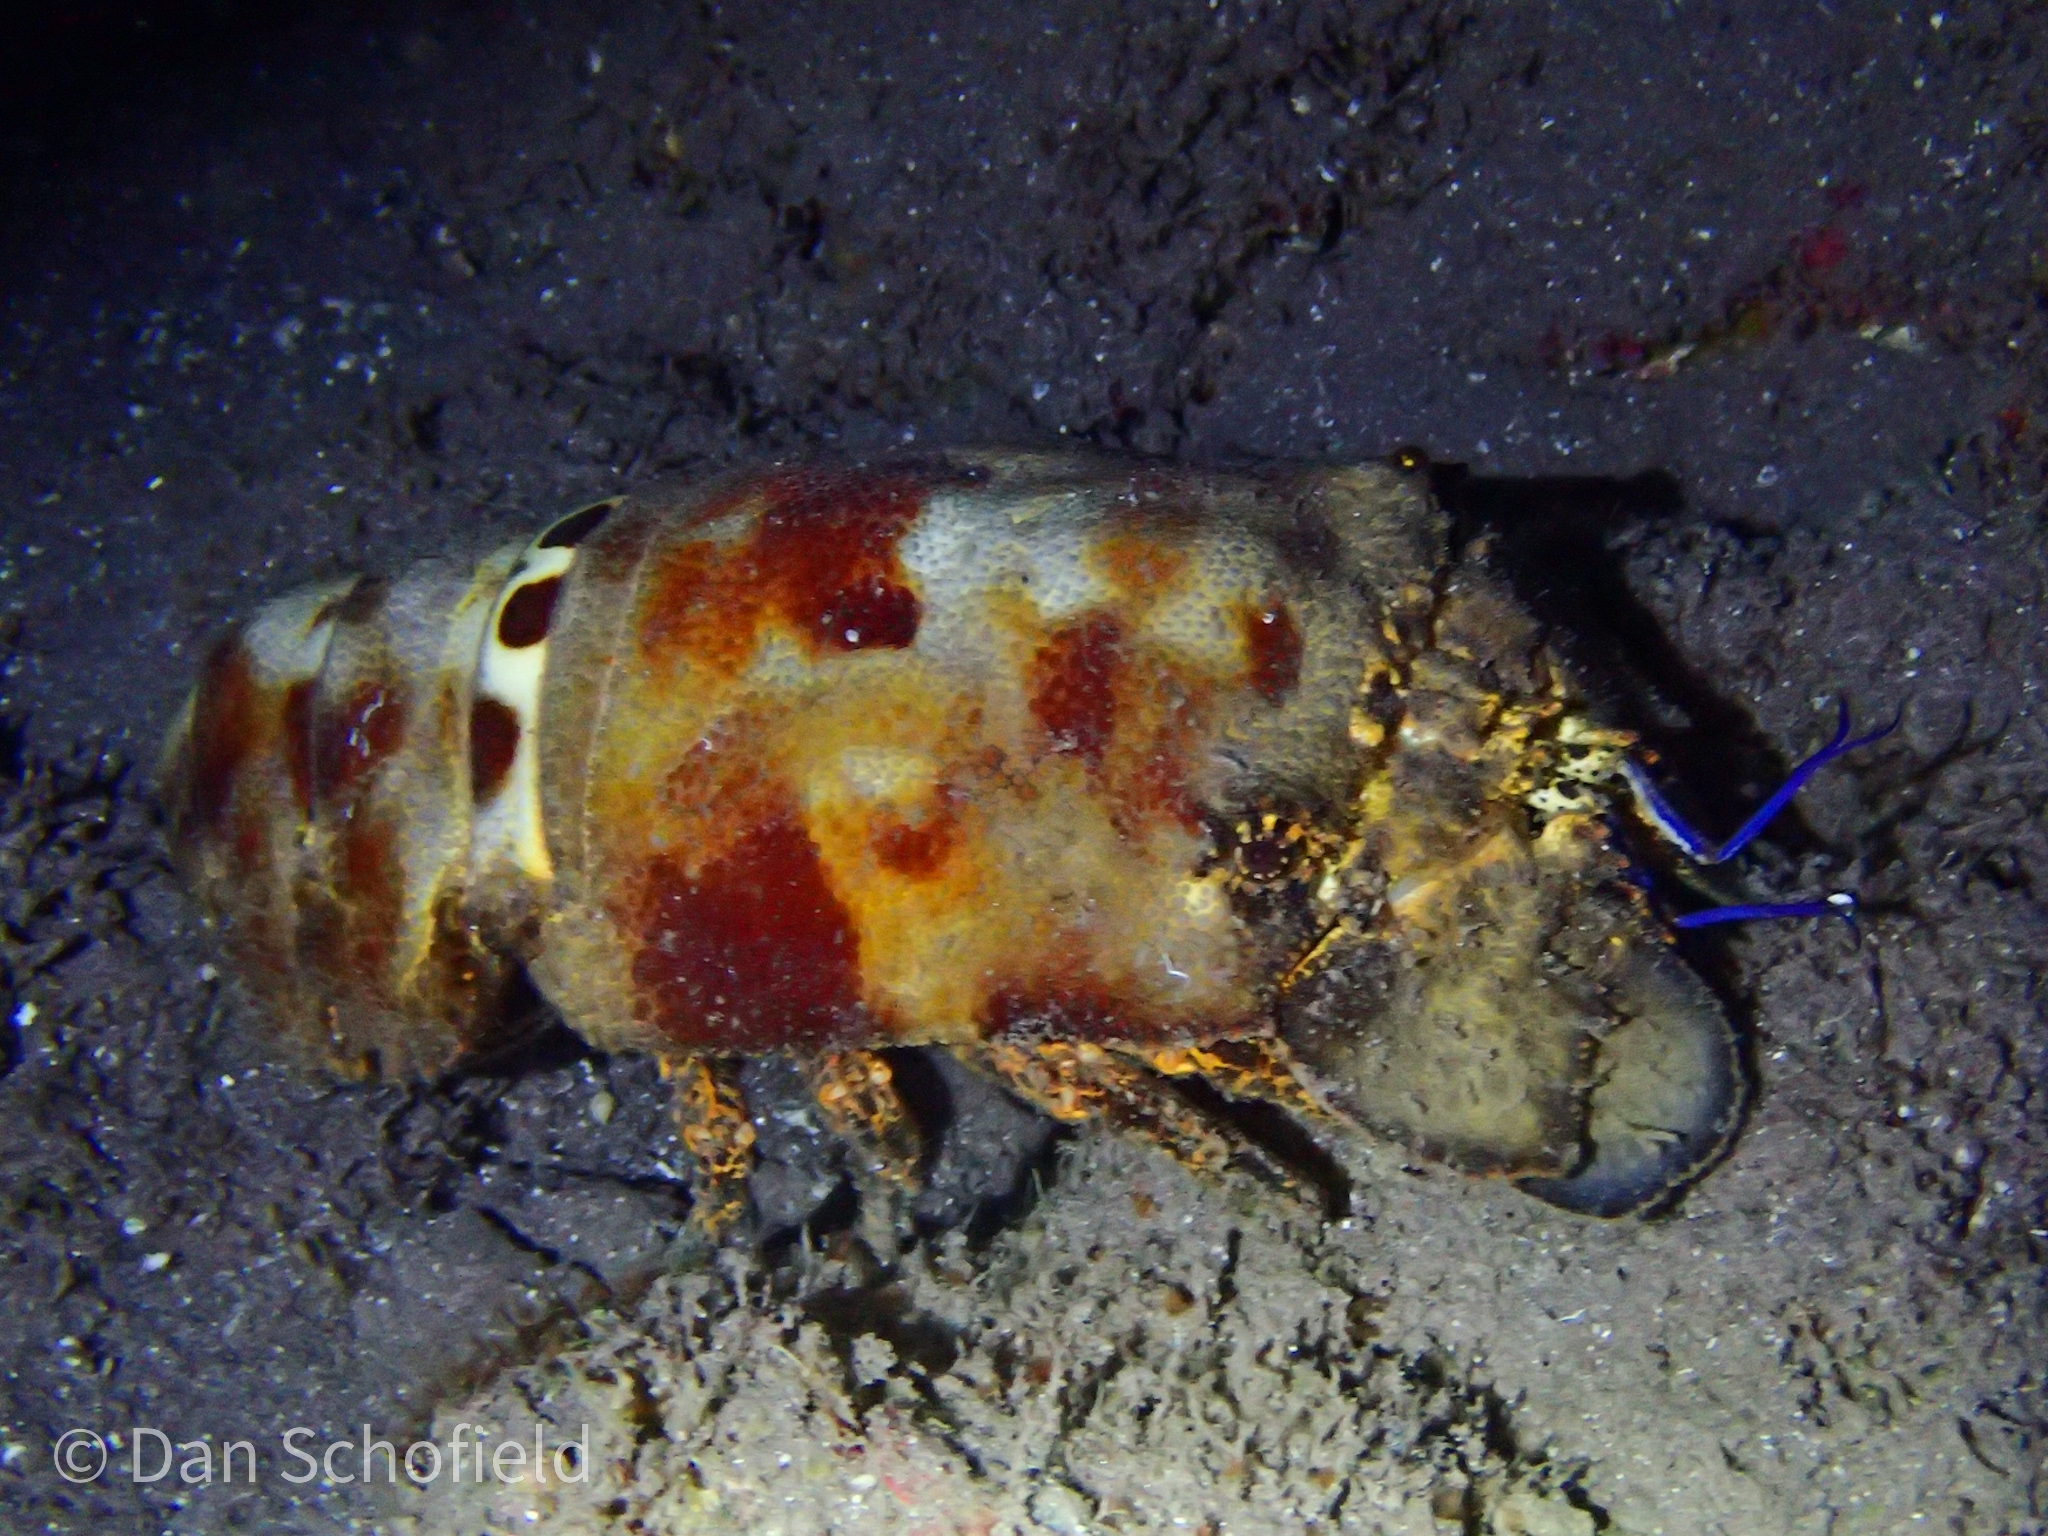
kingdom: Animalia
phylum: Arthropoda
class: Malacostraca
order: Decapoda
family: Scyllaridae
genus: Scyllarides
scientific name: Scyllarides aequinoctialis
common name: Spanish slipper lobster
